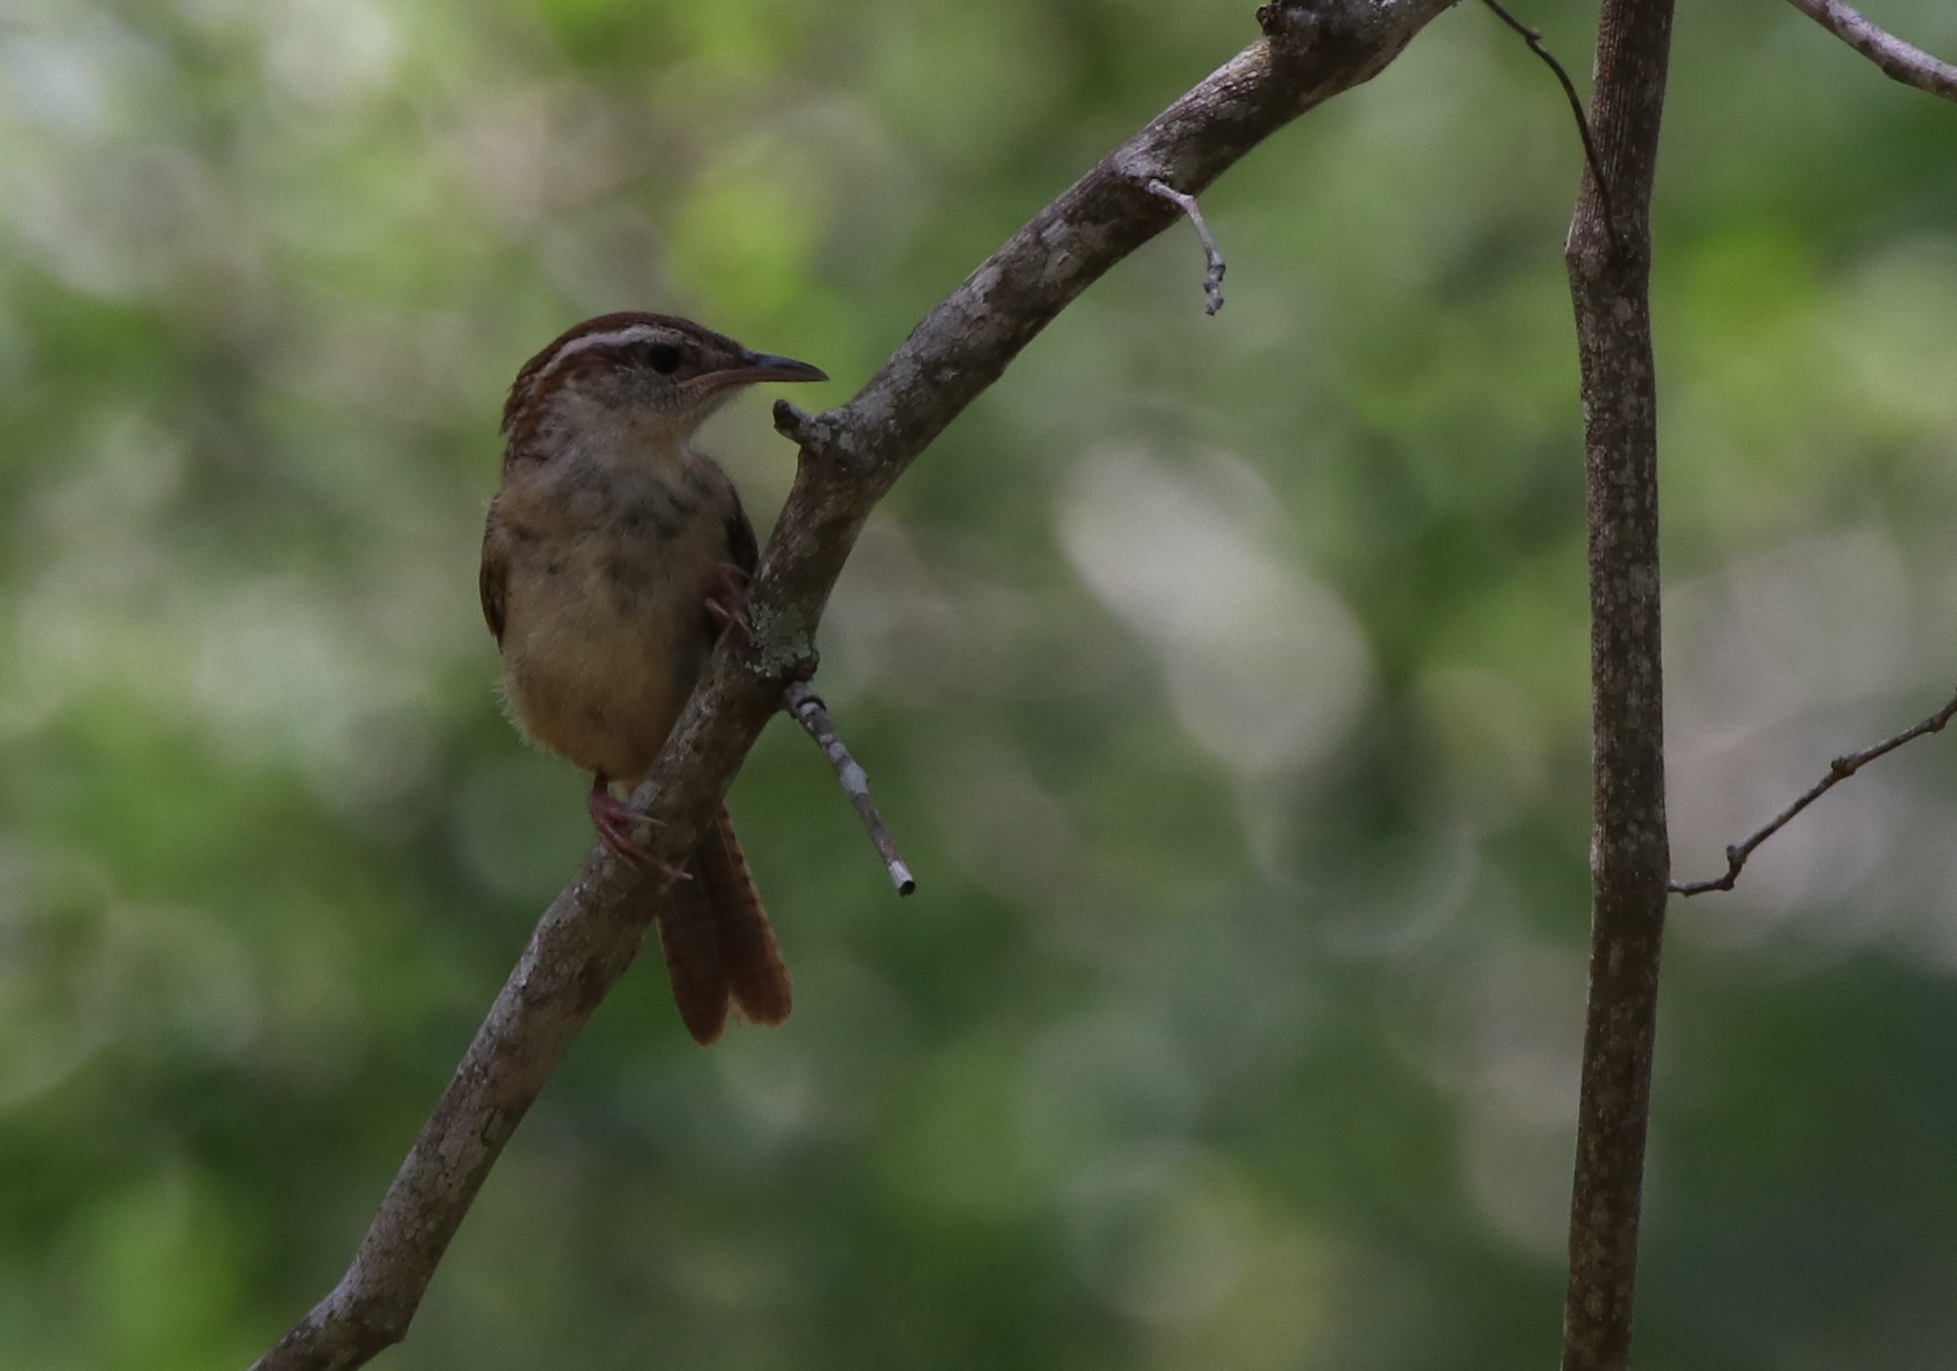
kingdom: Animalia
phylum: Chordata
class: Aves
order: Passeriformes
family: Troglodytidae
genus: Thryothorus
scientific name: Thryothorus ludovicianus
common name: Carolina wren
